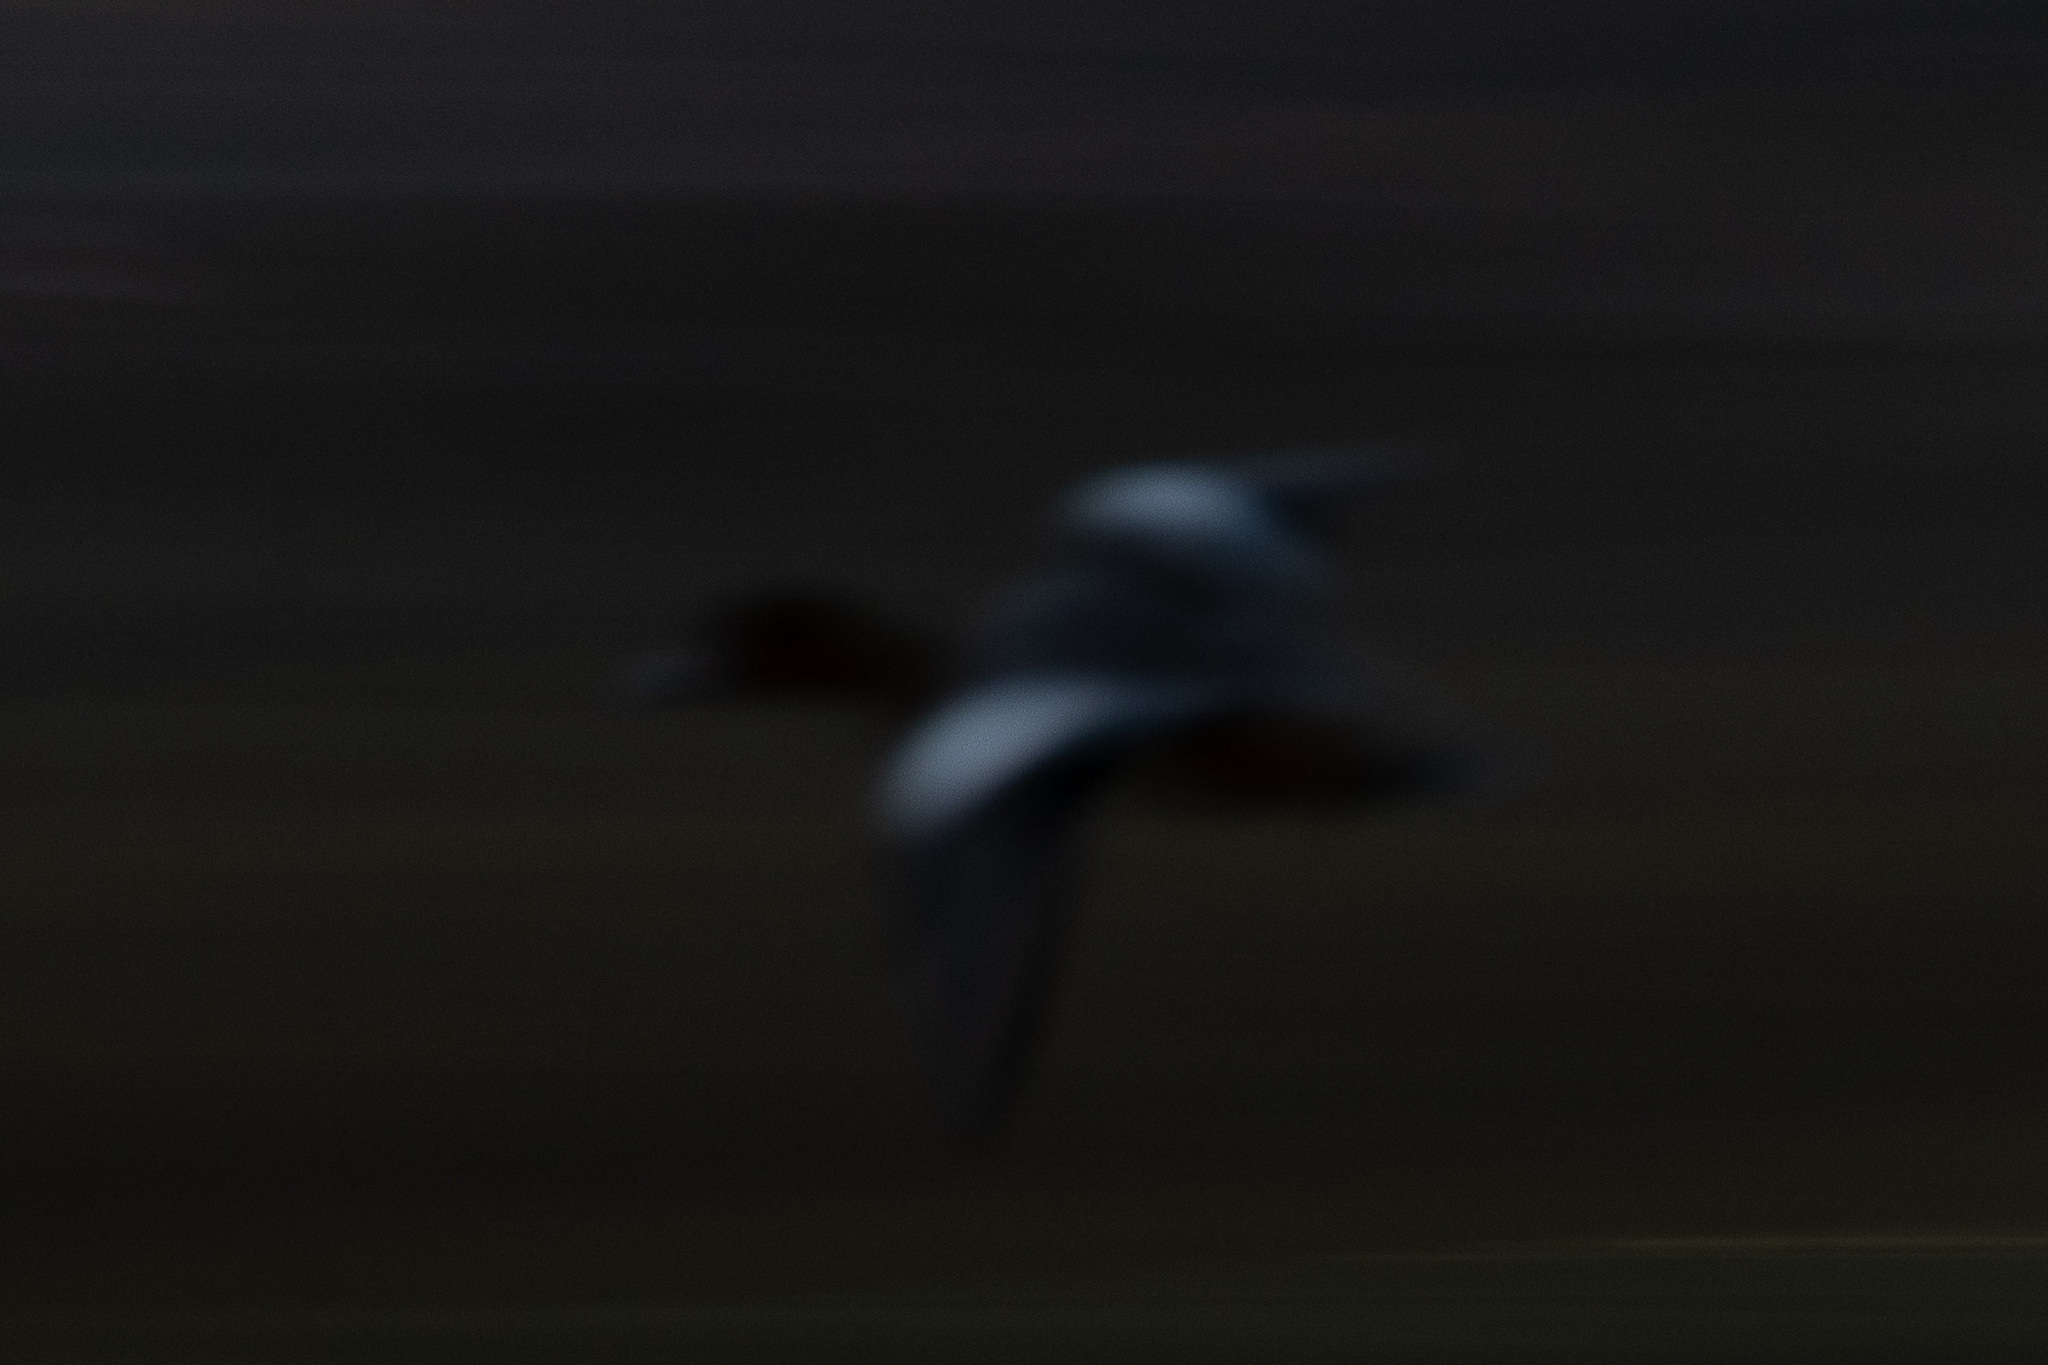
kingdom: Animalia
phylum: Chordata
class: Aves
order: Anseriformes
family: Anatidae
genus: Mareca
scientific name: Mareca penelope
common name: Eurasian wigeon
